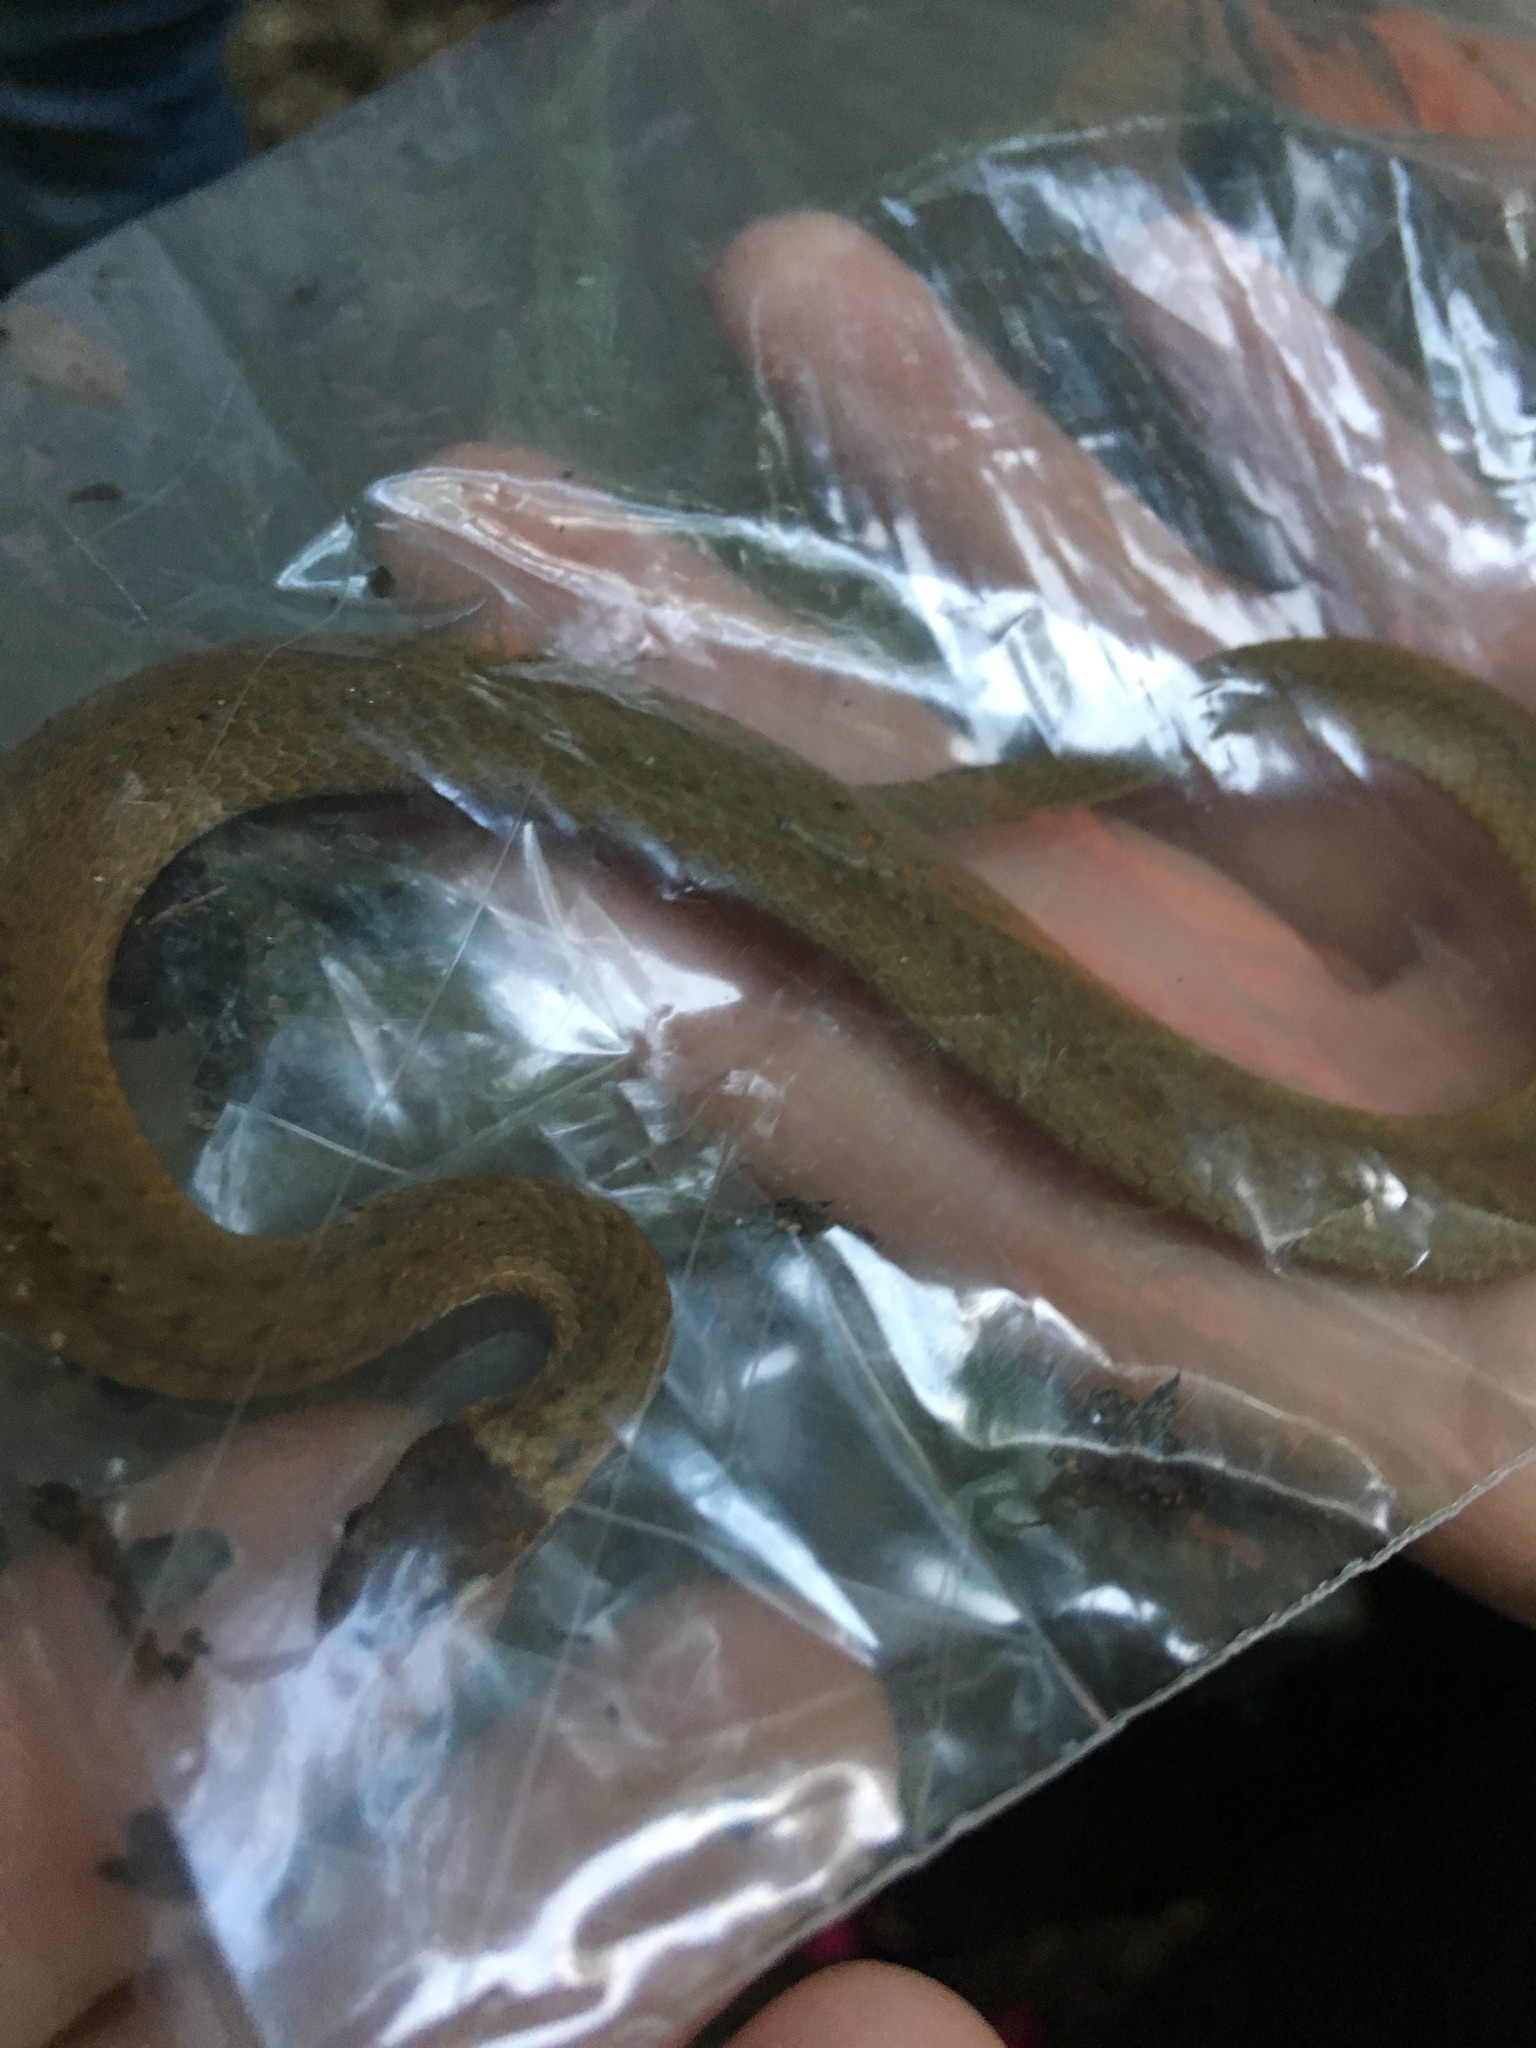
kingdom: Animalia
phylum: Chordata
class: Squamata
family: Colubridae
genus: Storeria
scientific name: Storeria occipitomaculata
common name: Redbelly snake
